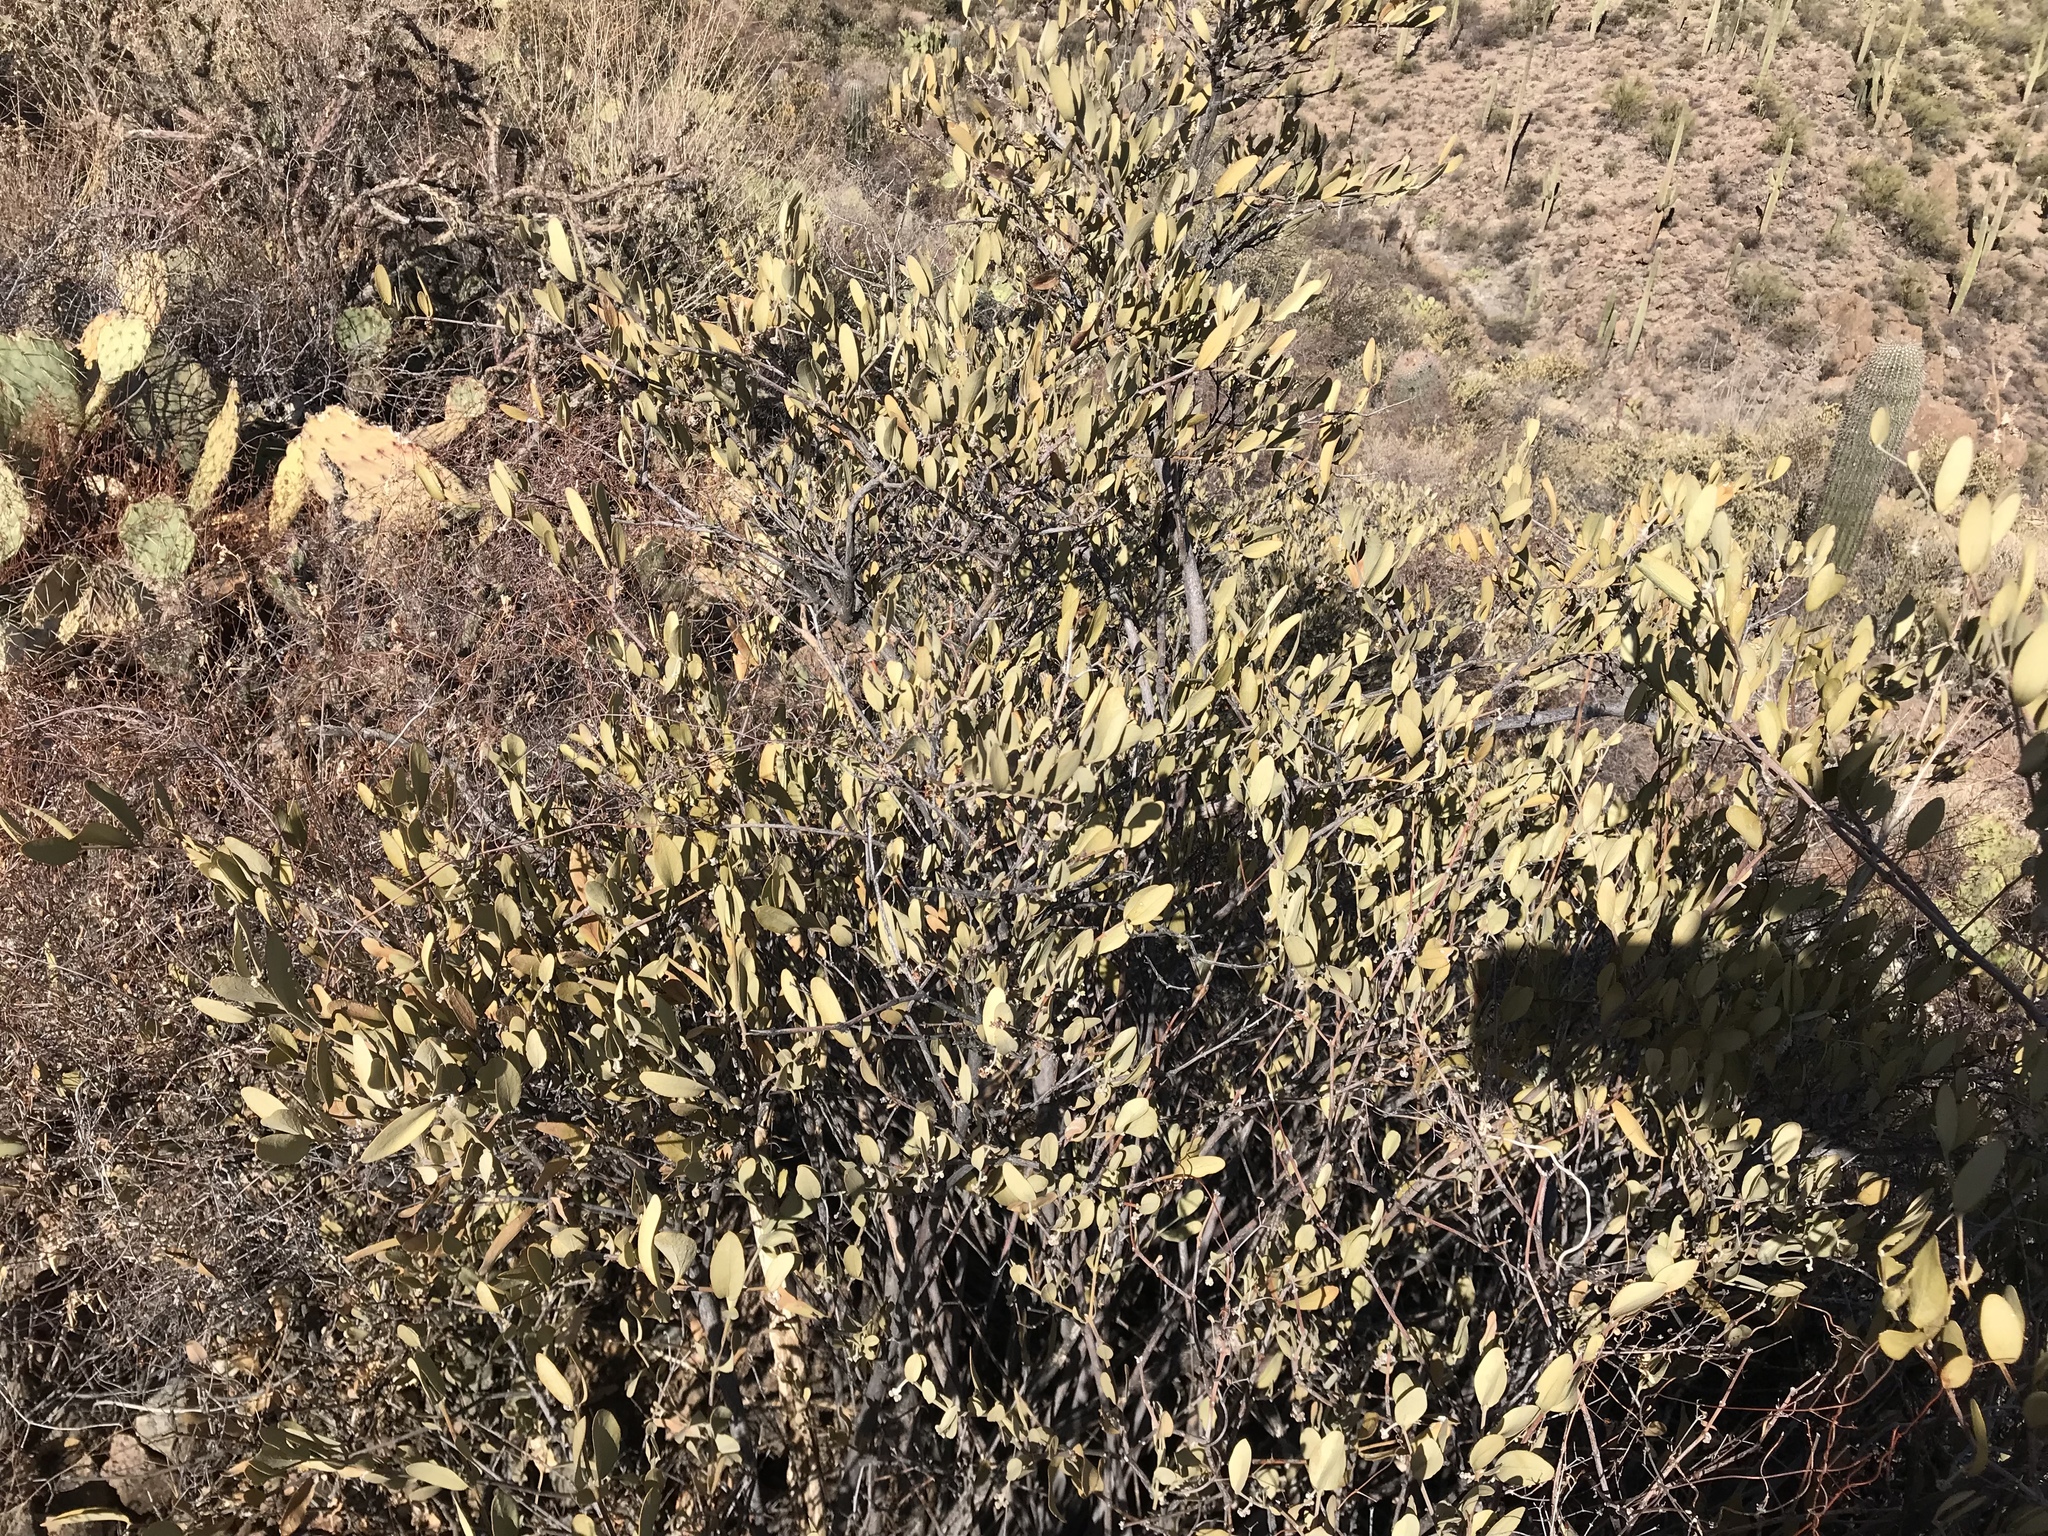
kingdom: Plantae
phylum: Tracheophyta
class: Magnoliopsida
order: Caryophyllales
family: Simmondsiaceae
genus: Simmondsia
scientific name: Simmondsia chinensis
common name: Jojoba
